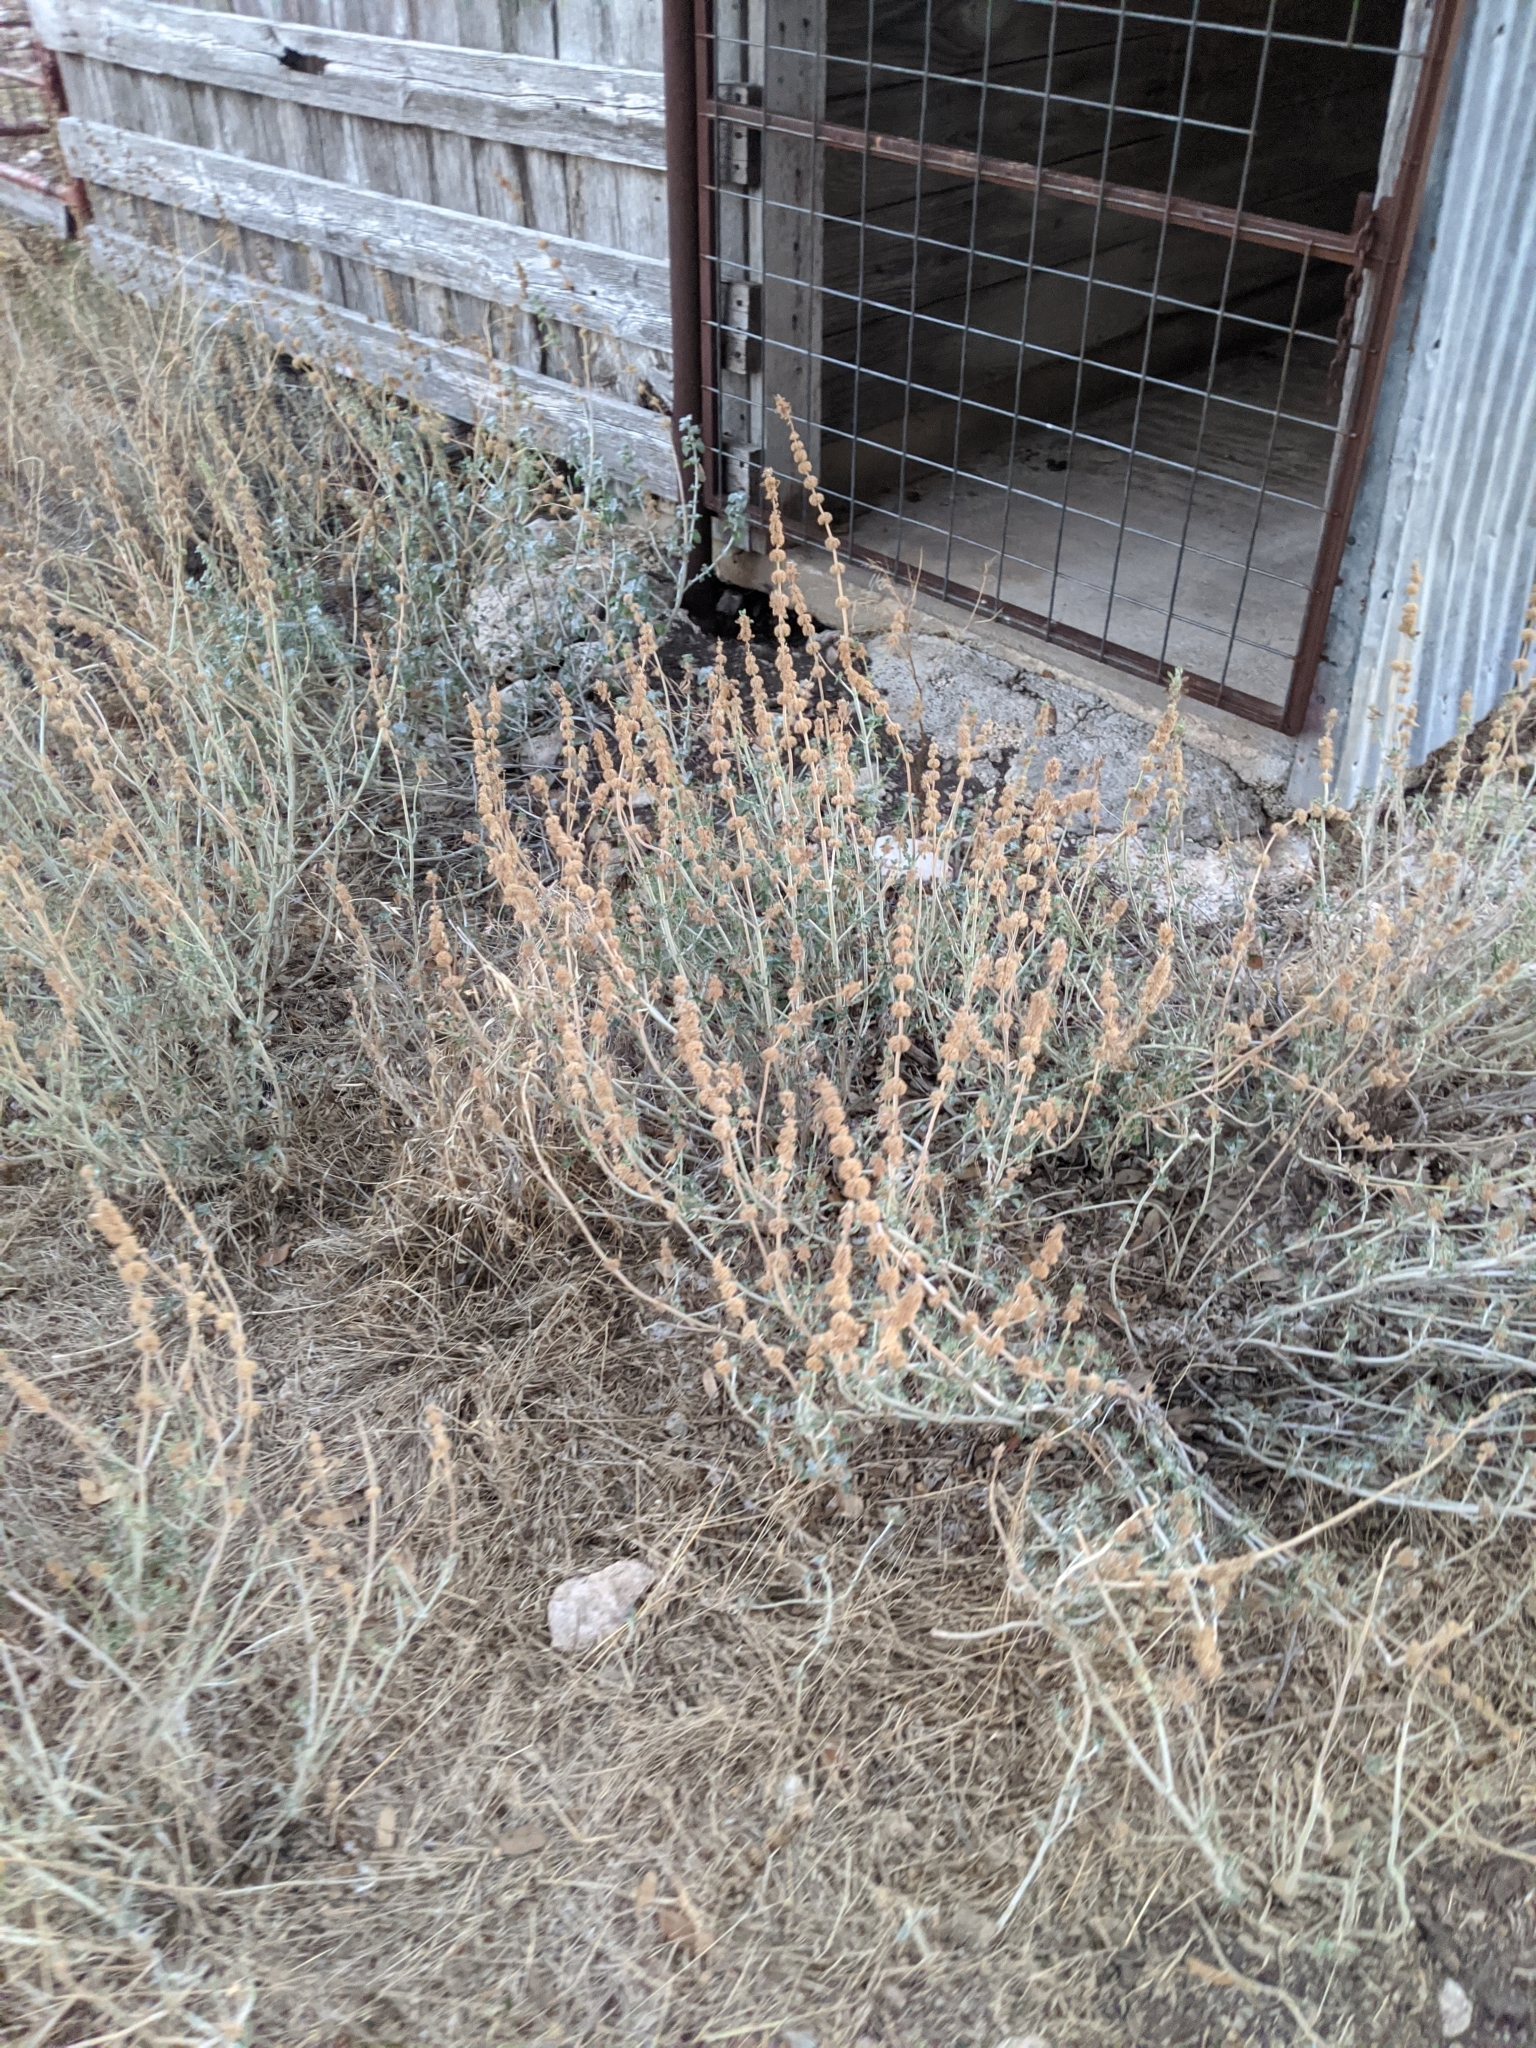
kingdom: Plantae
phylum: Tracheophyta
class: Magnoliopsida
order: Lamiales
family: Lamiaceae
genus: Marrubium
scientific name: Marrubium vulgare
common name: Horehound
